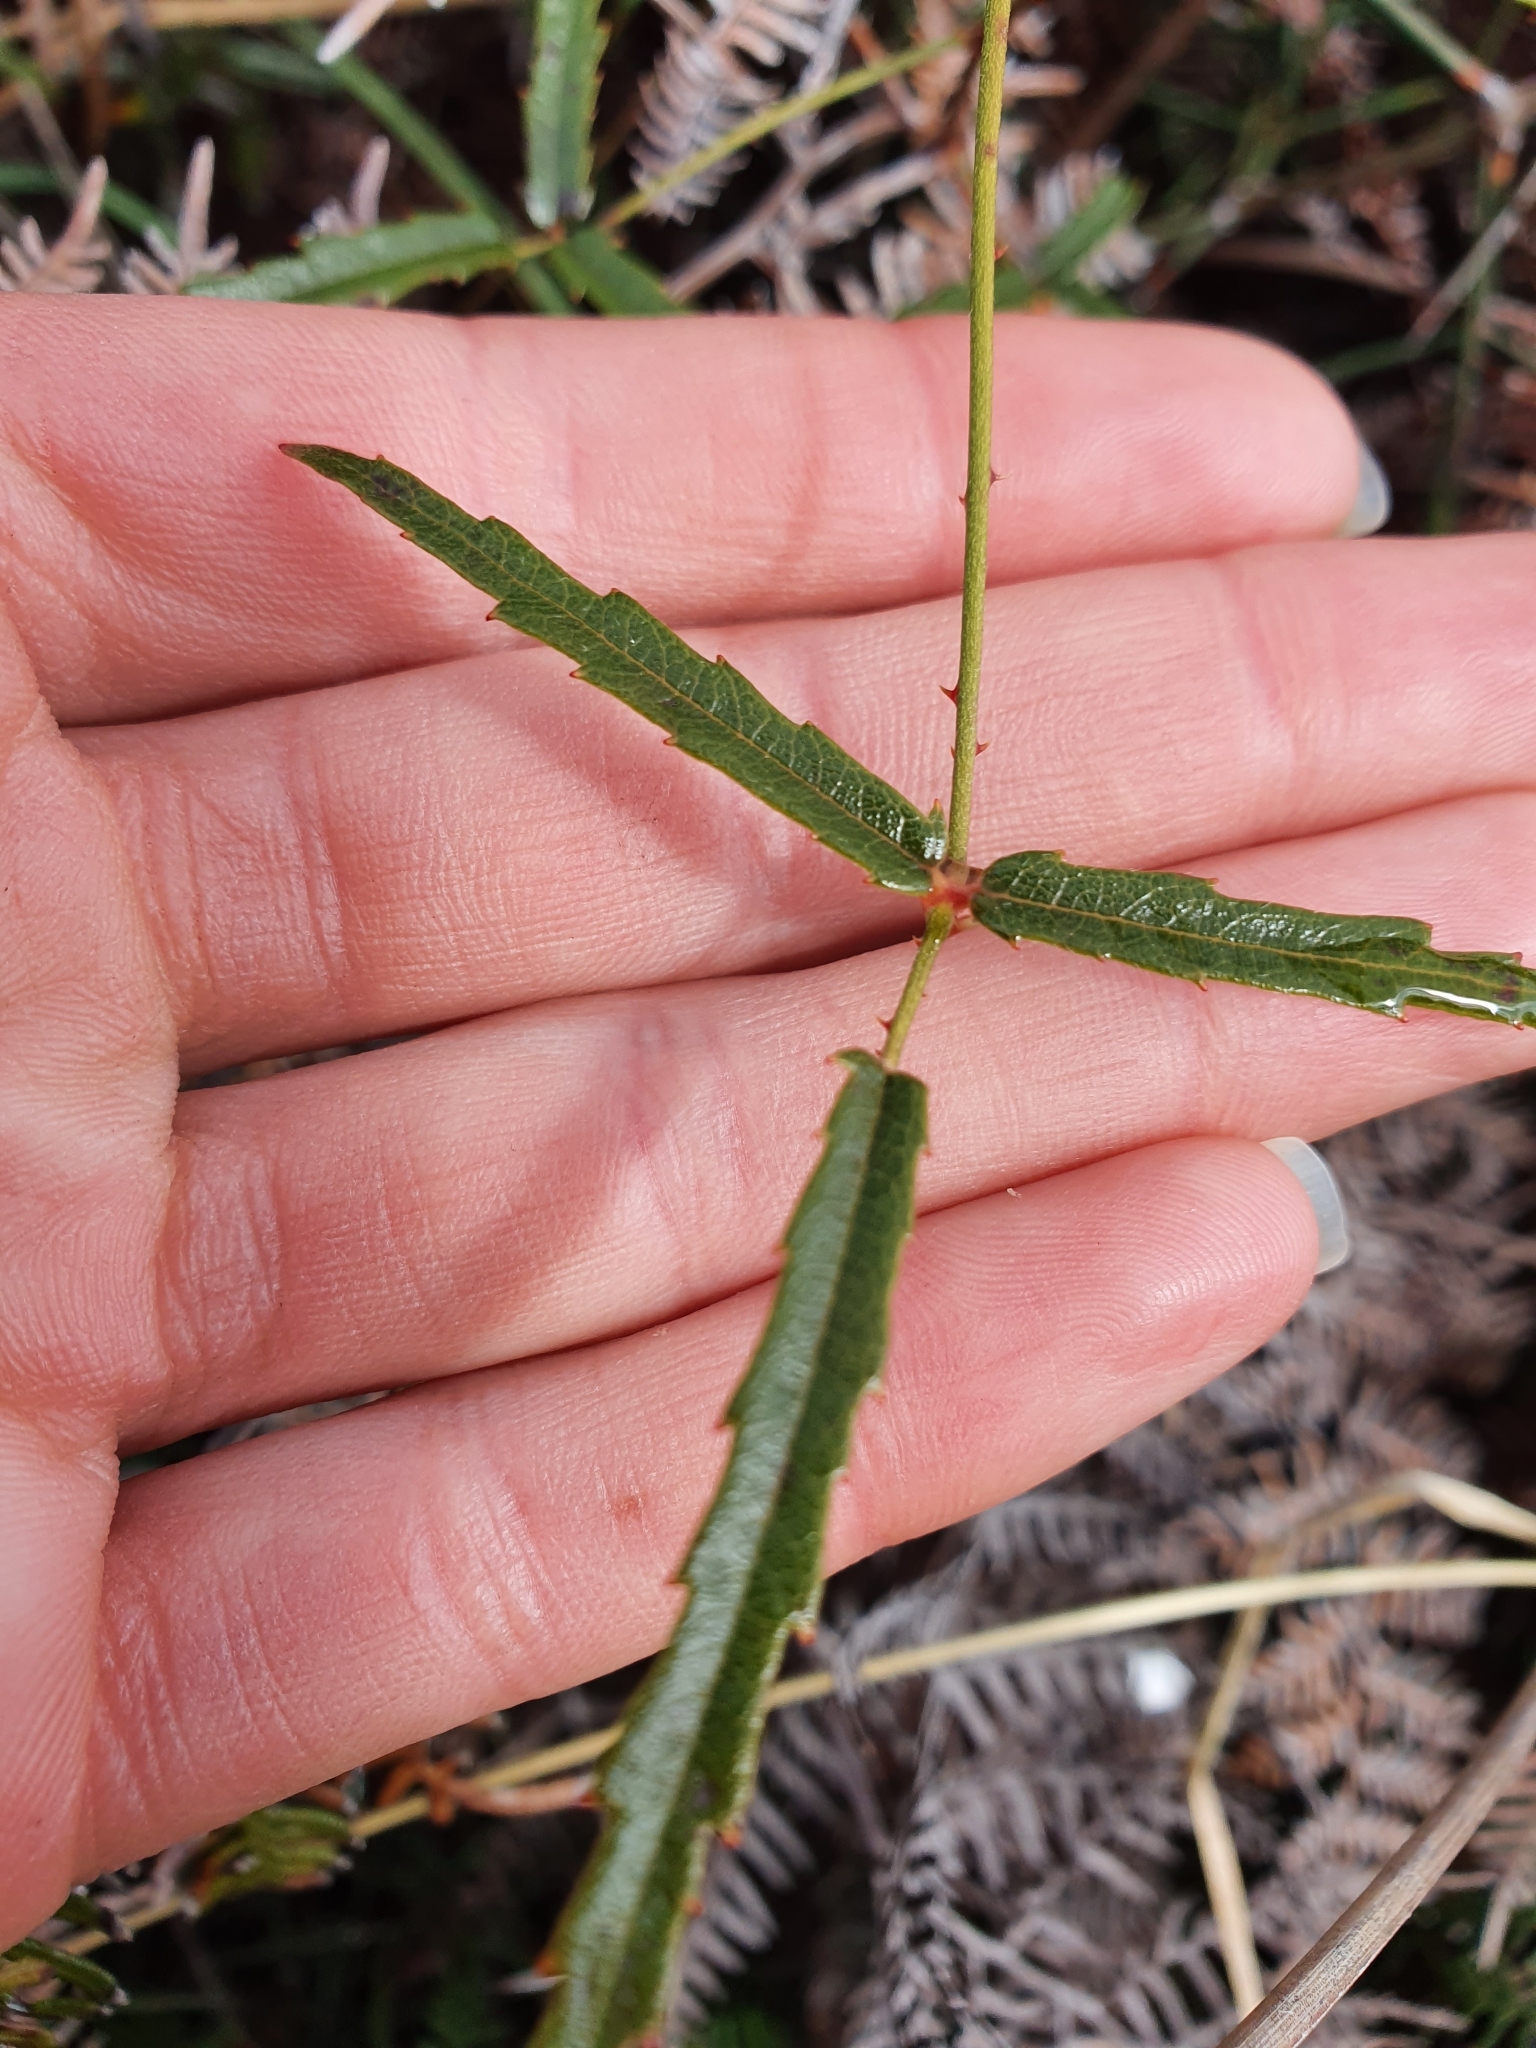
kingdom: Plantae
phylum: Tracheophyta
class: Magnoliopsida
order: Rosales
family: Rosaceae
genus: Rubus
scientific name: Rubus schmidelioides
